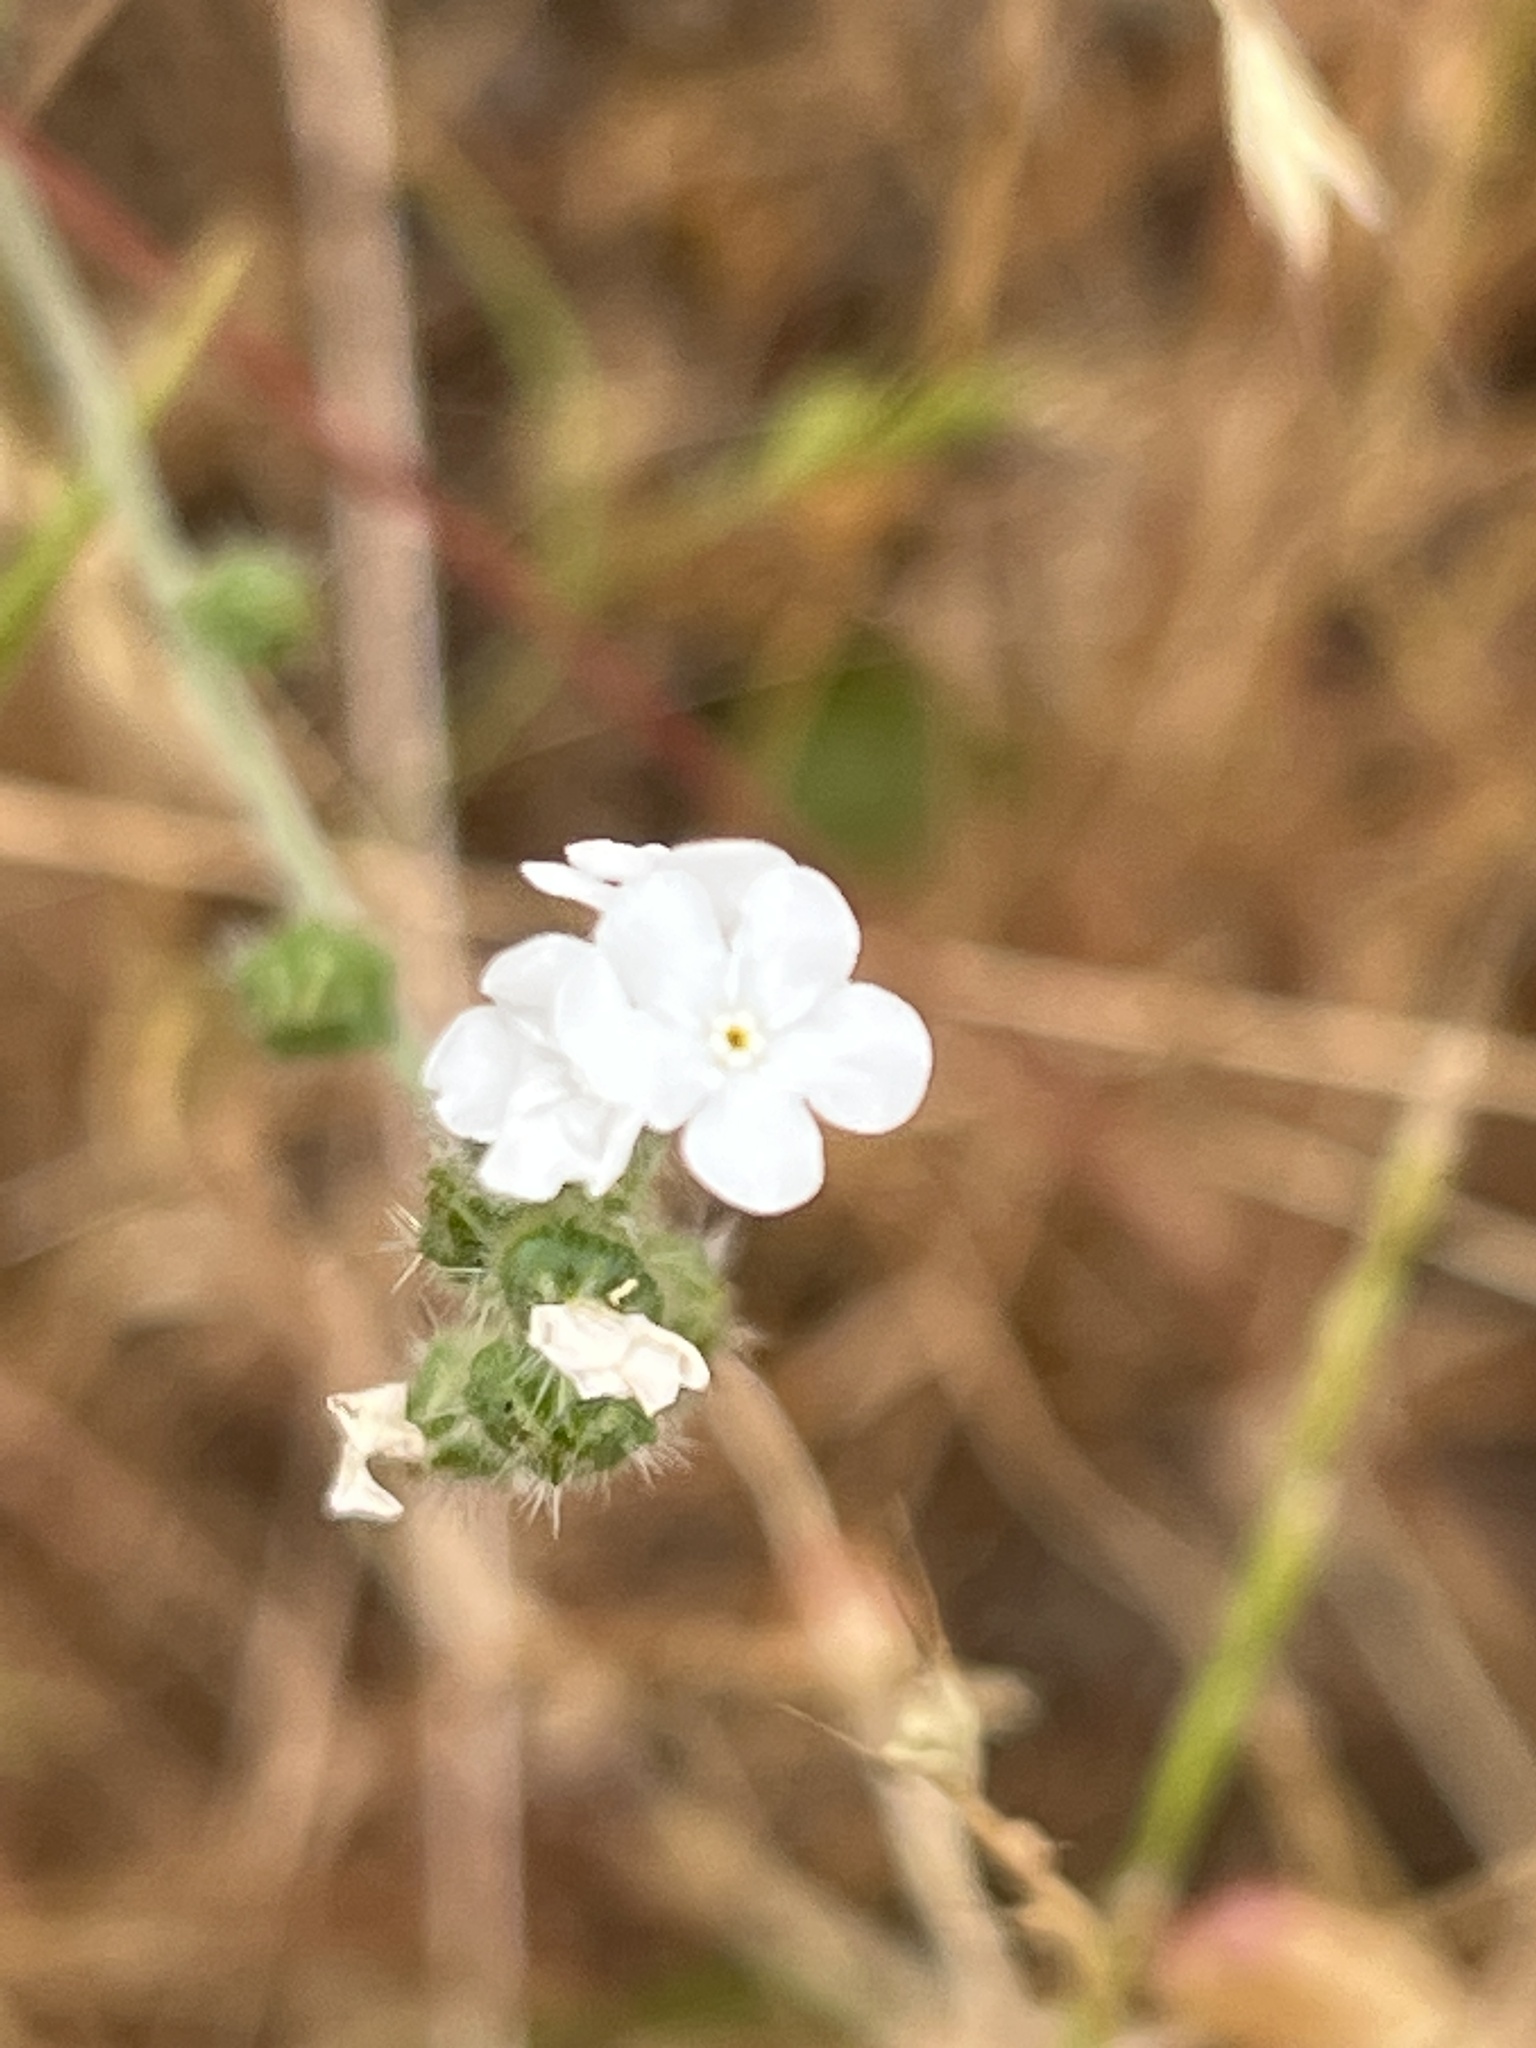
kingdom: Plantae
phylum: Tracheophyta
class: Magnoliopsida
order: Boraginales
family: Boraginaceae
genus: Plagiobothrys
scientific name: Plagiobothrys nothofulvus
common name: Popcorn-flower
